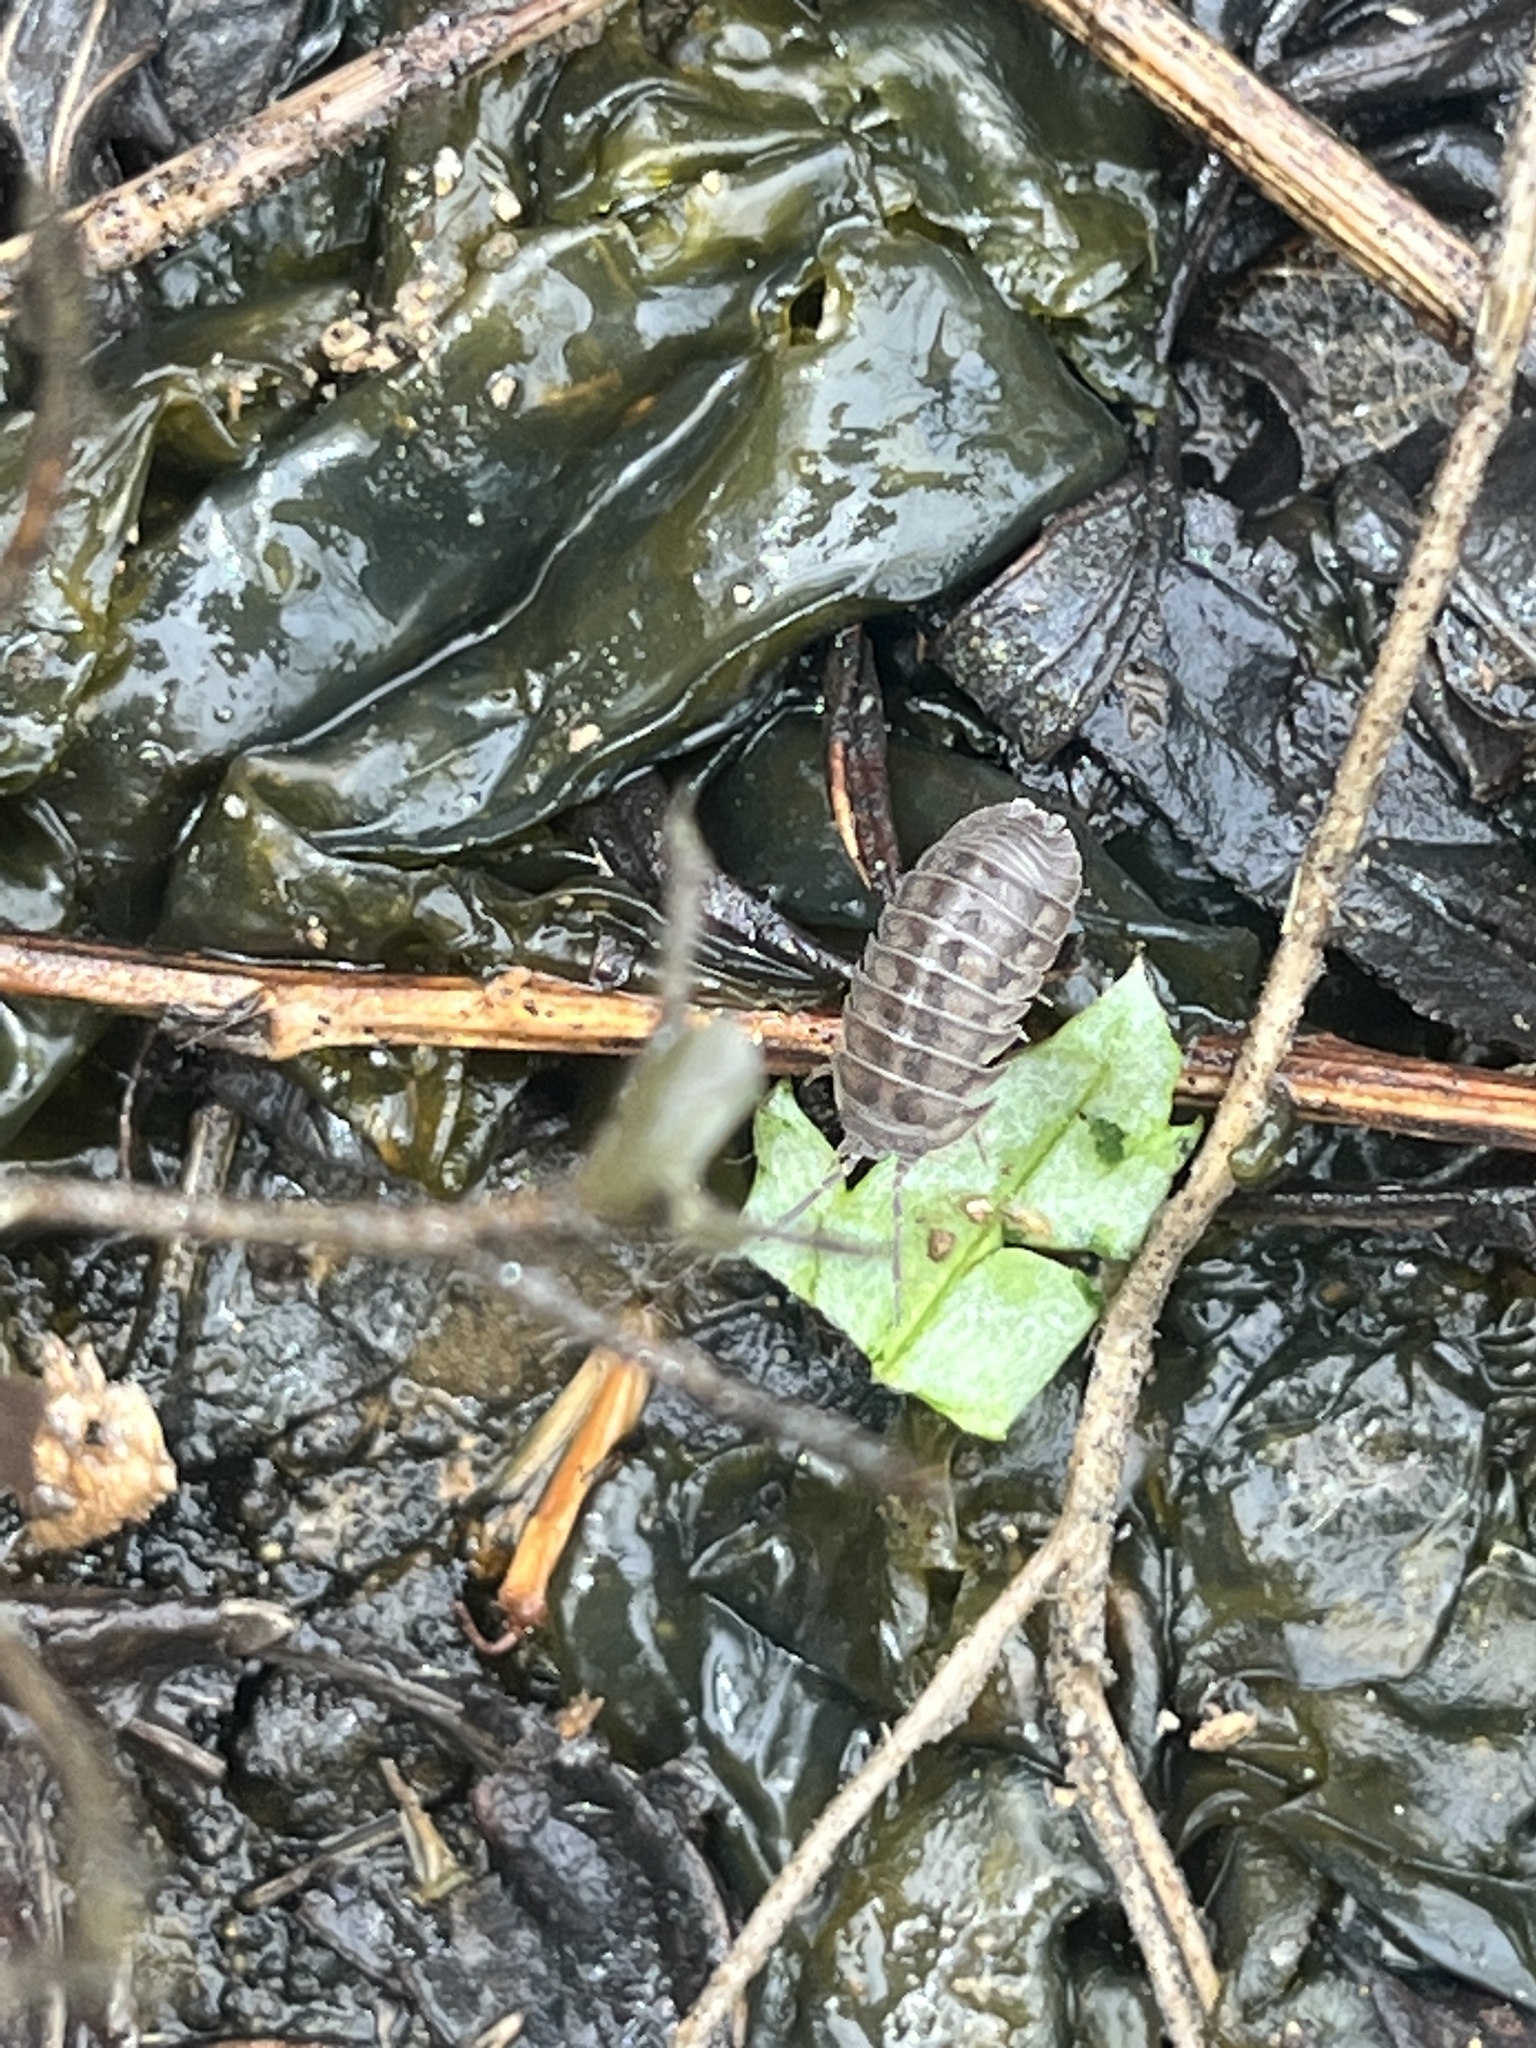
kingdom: Animalia
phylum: Arthropoda
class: Malacostraca
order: Isopoda
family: Armadillidiidae
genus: Armadillidium
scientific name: Armadillidium nasatum
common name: Isopod
